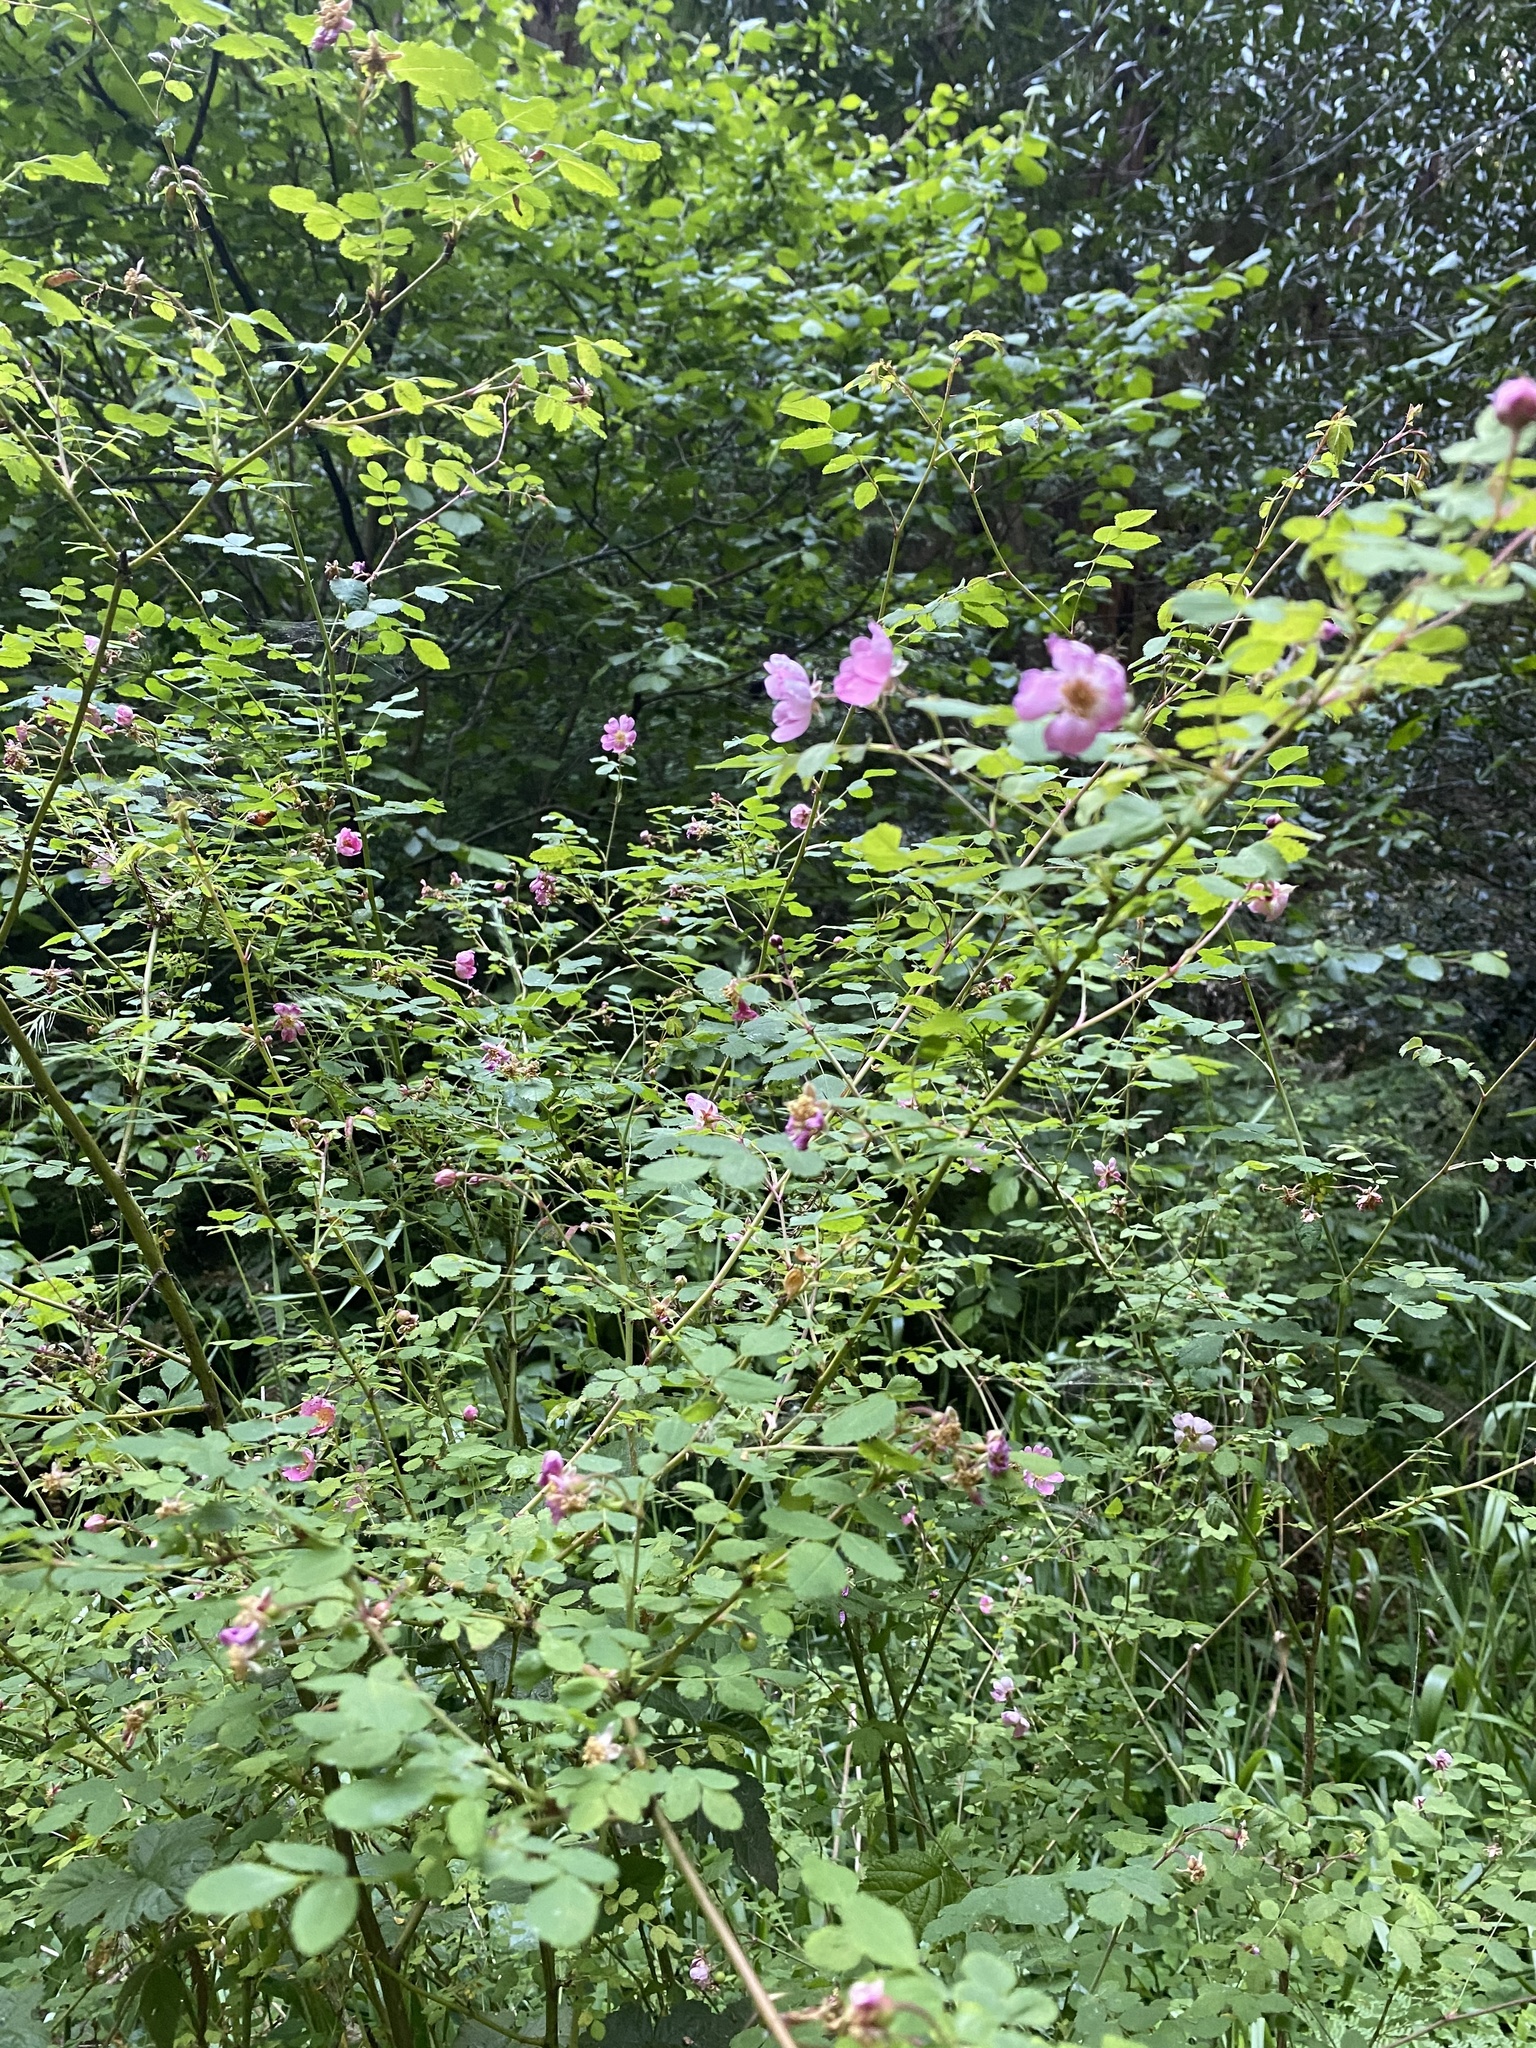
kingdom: Plantae
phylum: Tracheophyta
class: Magnoliopsida
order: Rosales
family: Rosaceae
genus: Rosa
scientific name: Rosa gymnocarpa
